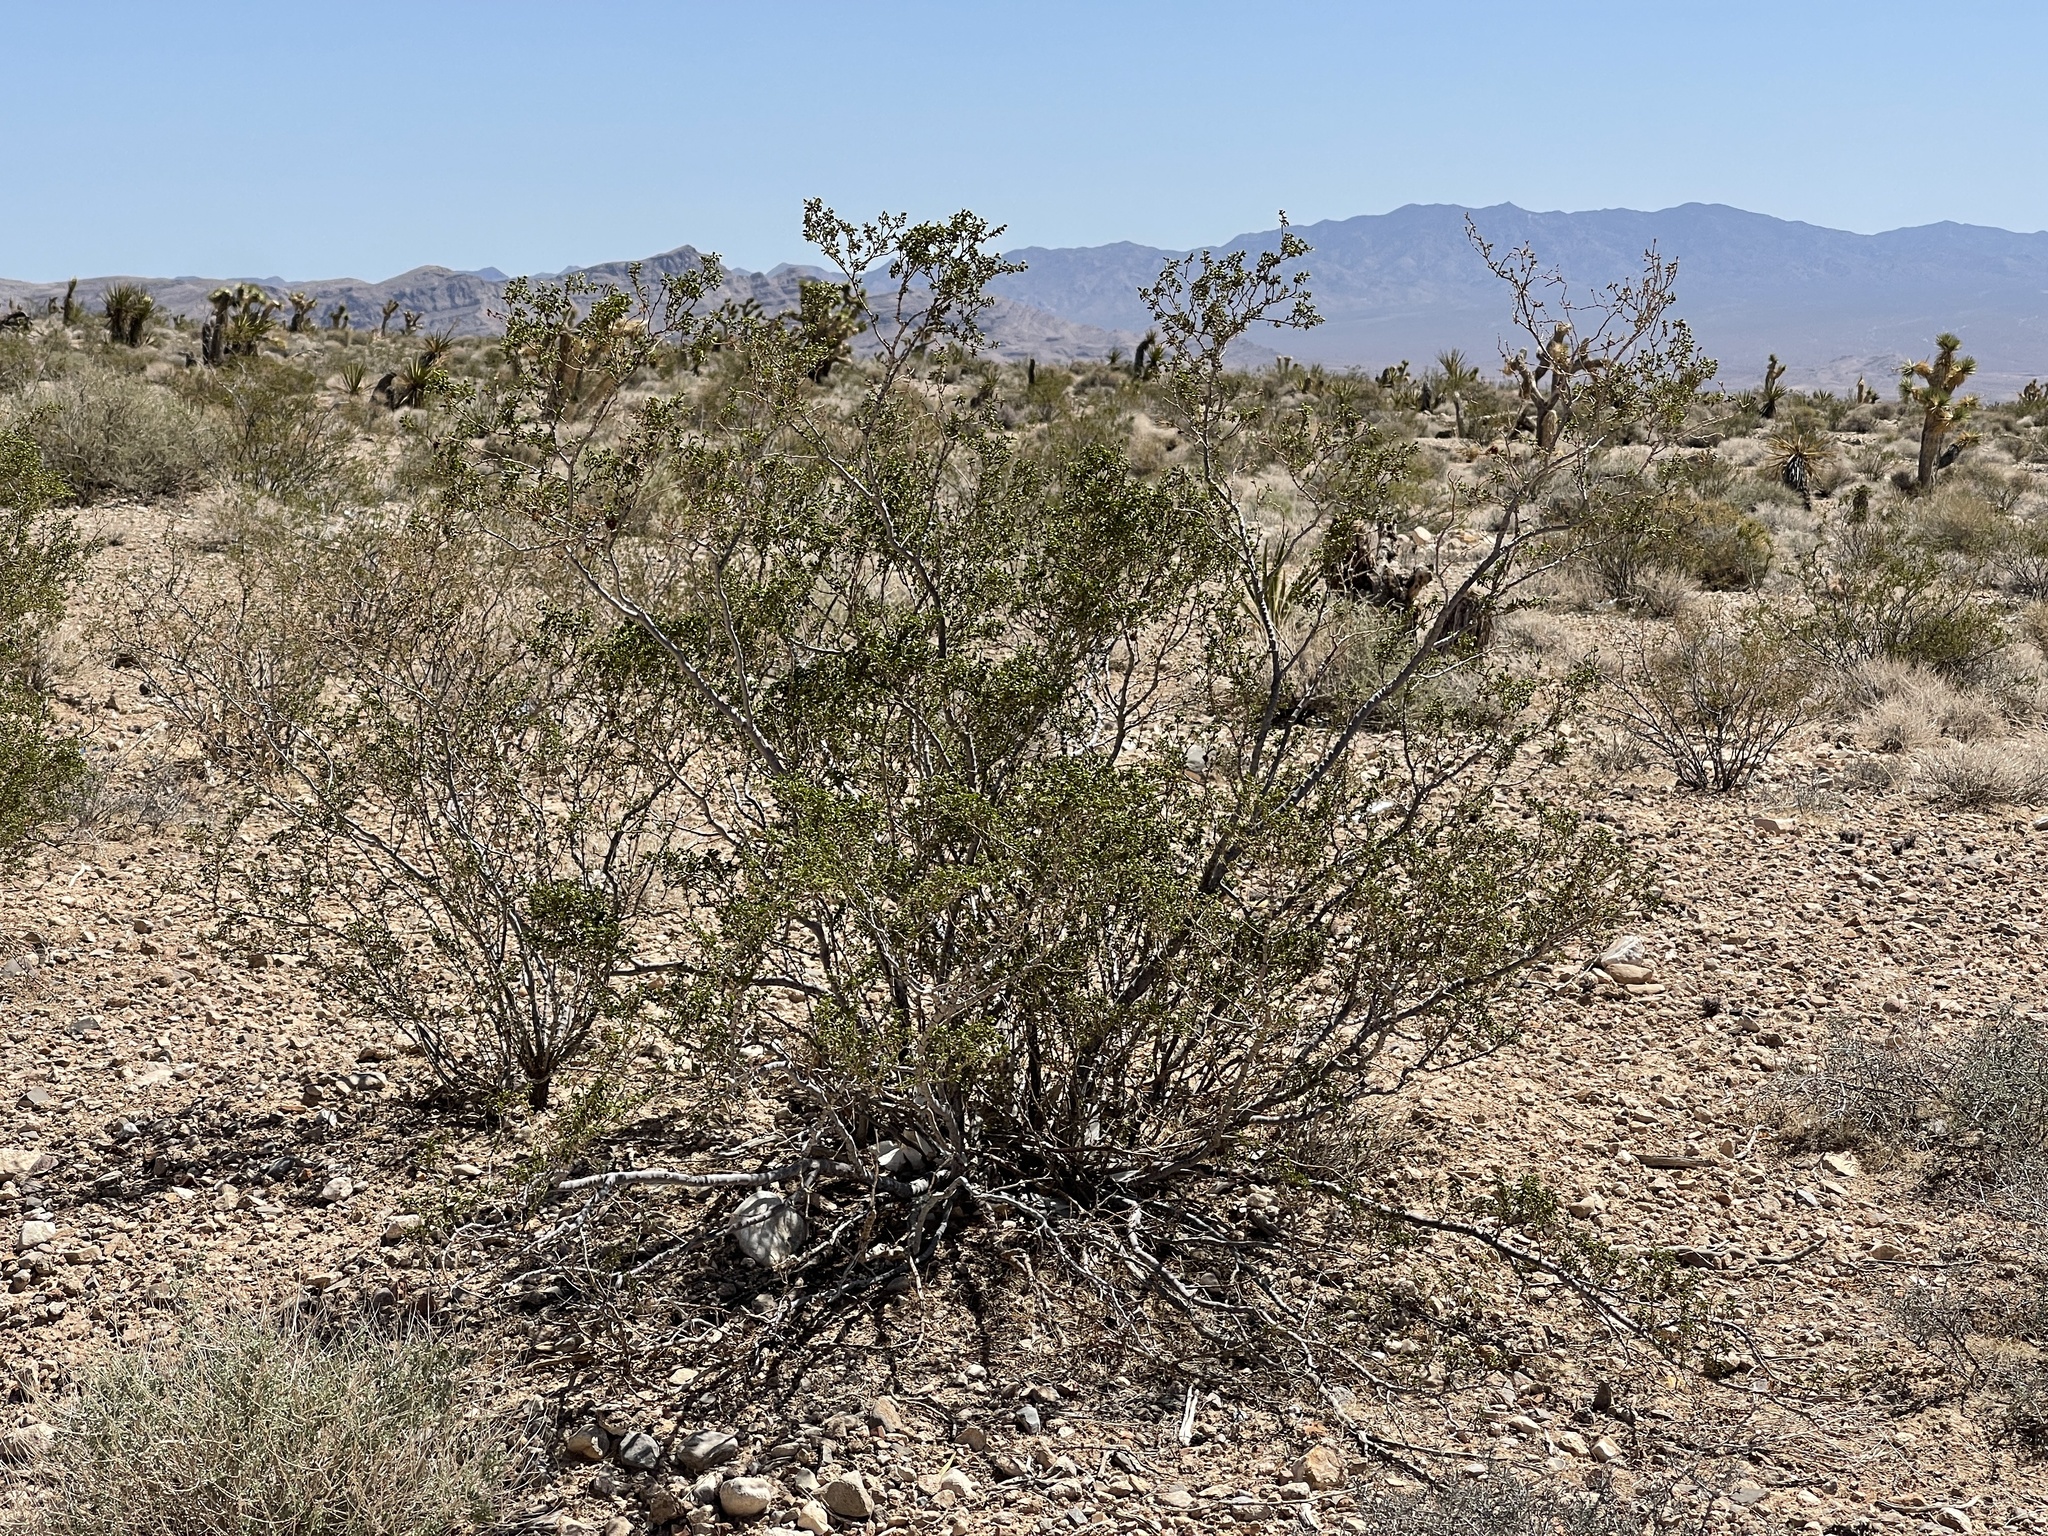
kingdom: Plantae
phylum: Tracheophyta
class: Magnoliopsida
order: Zygophyllales
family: Zygophyllaceae
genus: Larrea
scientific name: Larrea tridentata
